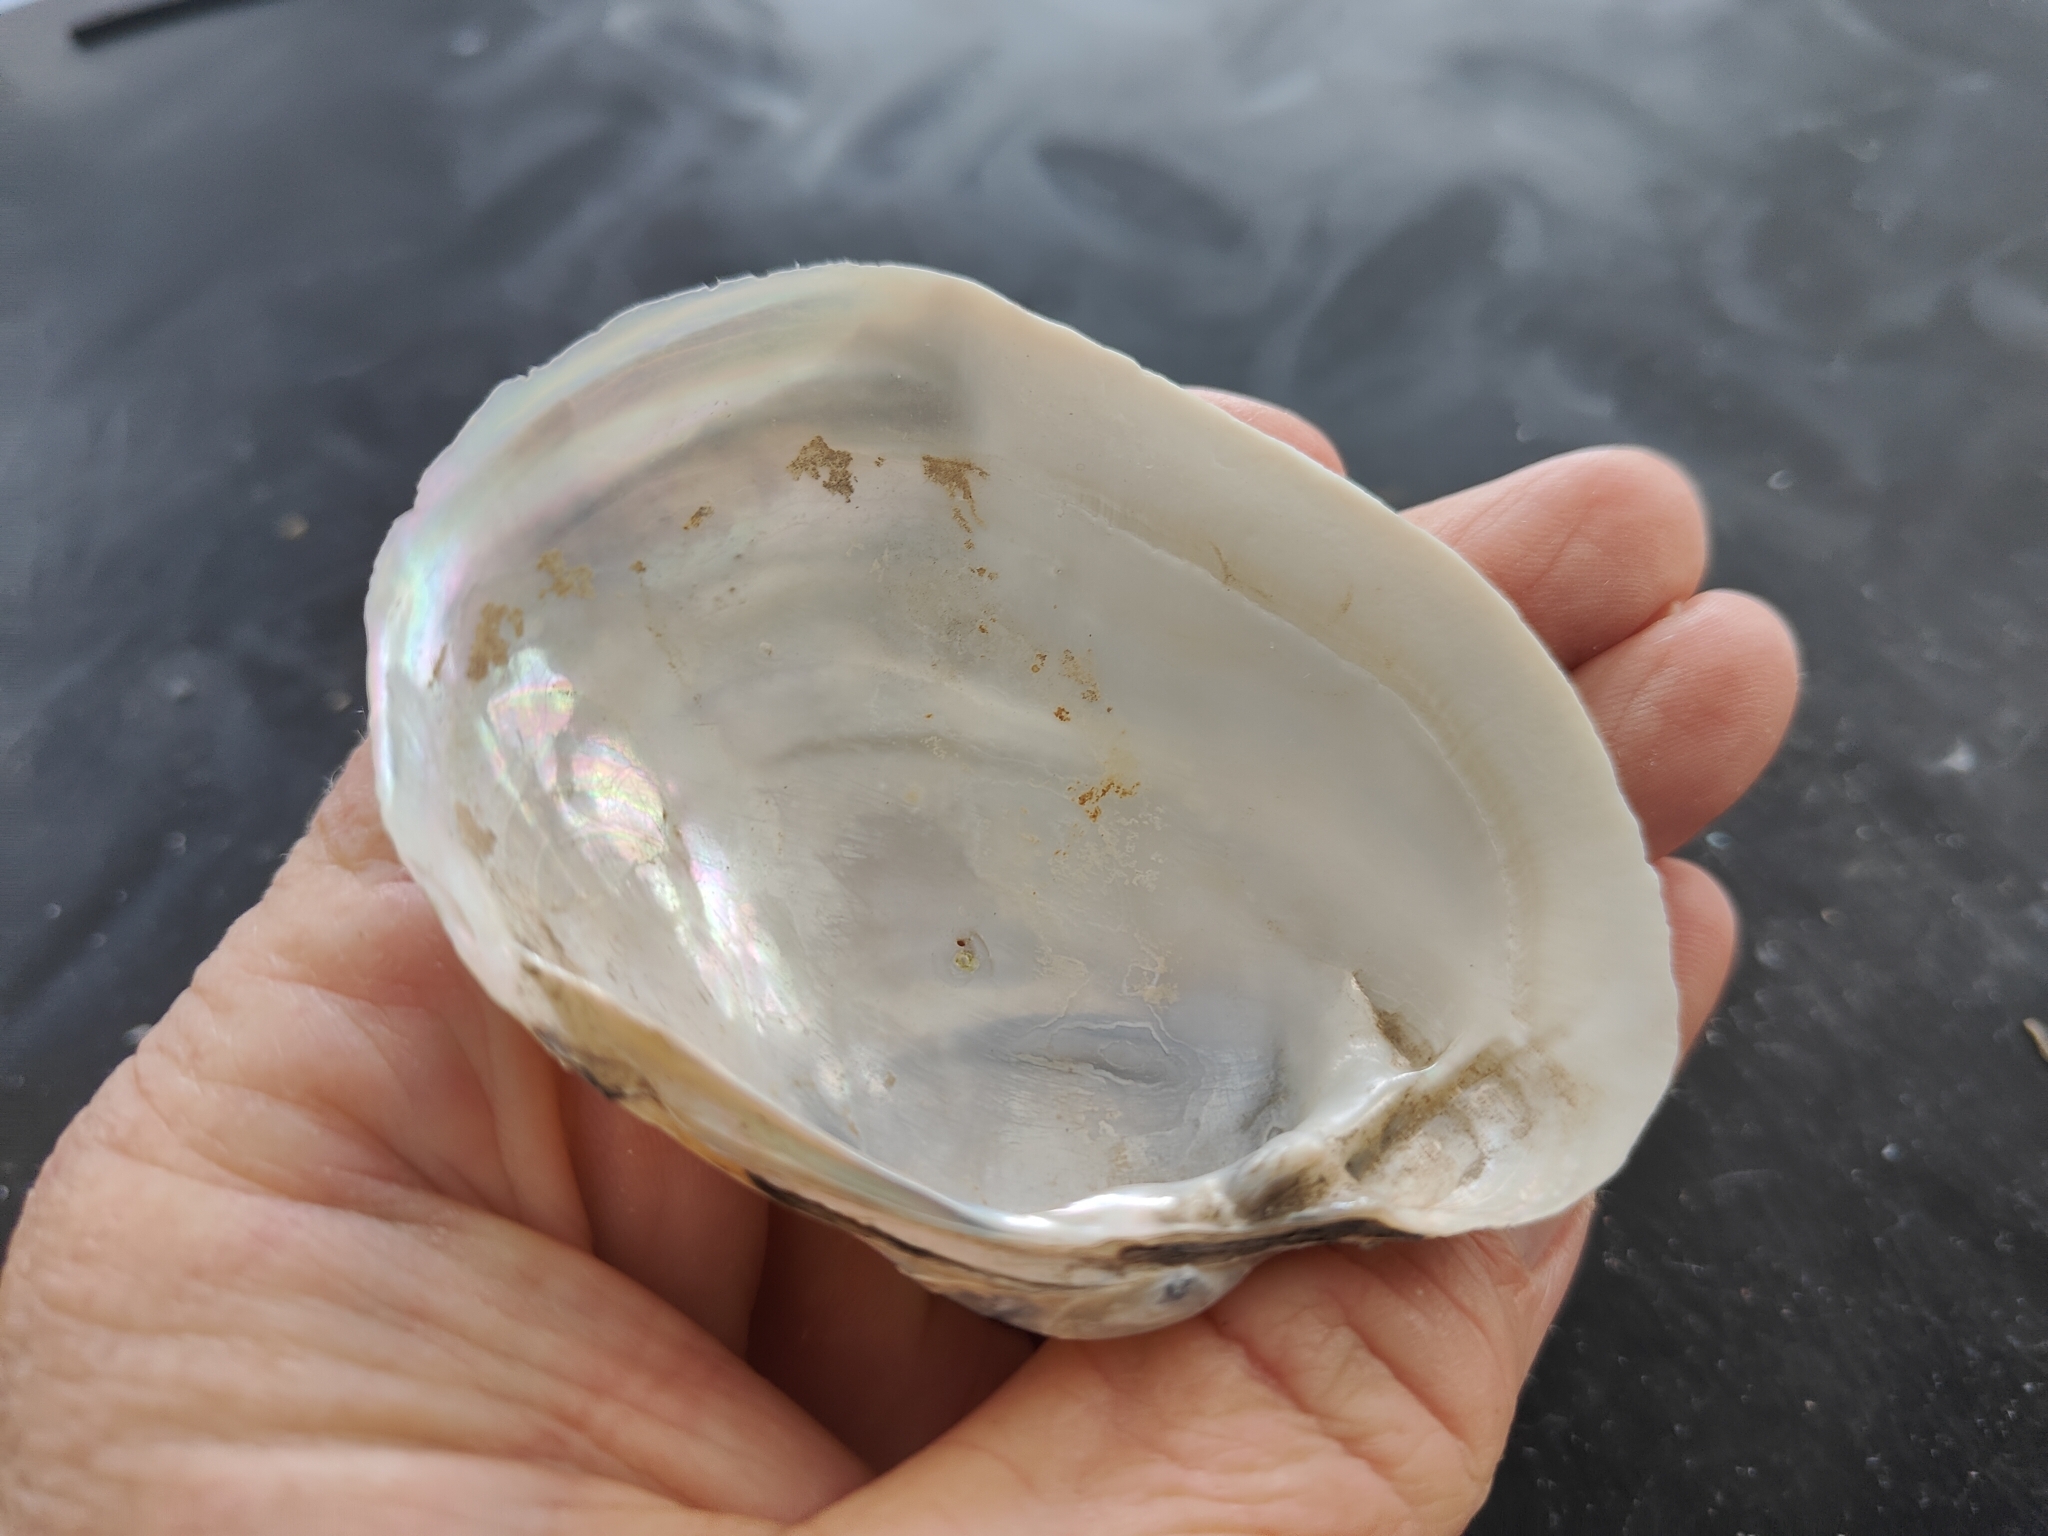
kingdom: Animalia
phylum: Mollusca
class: Bivalvia
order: Unionida
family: Unionidae
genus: Lampsilis
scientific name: Lampsilis cardium
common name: Plain pocketbook
